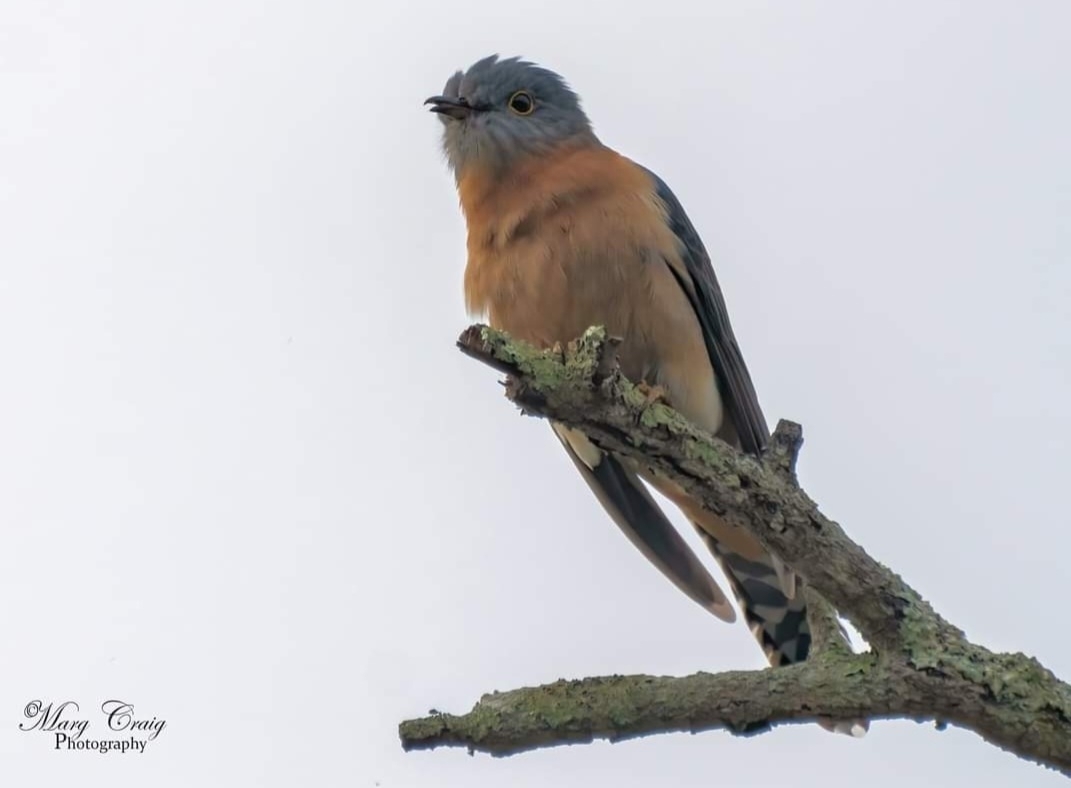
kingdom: Animalia
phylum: Chordata
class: Aves
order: Cuculiformes
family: Cuculidae
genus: Cacomantis
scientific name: Cacomantis flabelliformis
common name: Fan-tailed cuckoo
